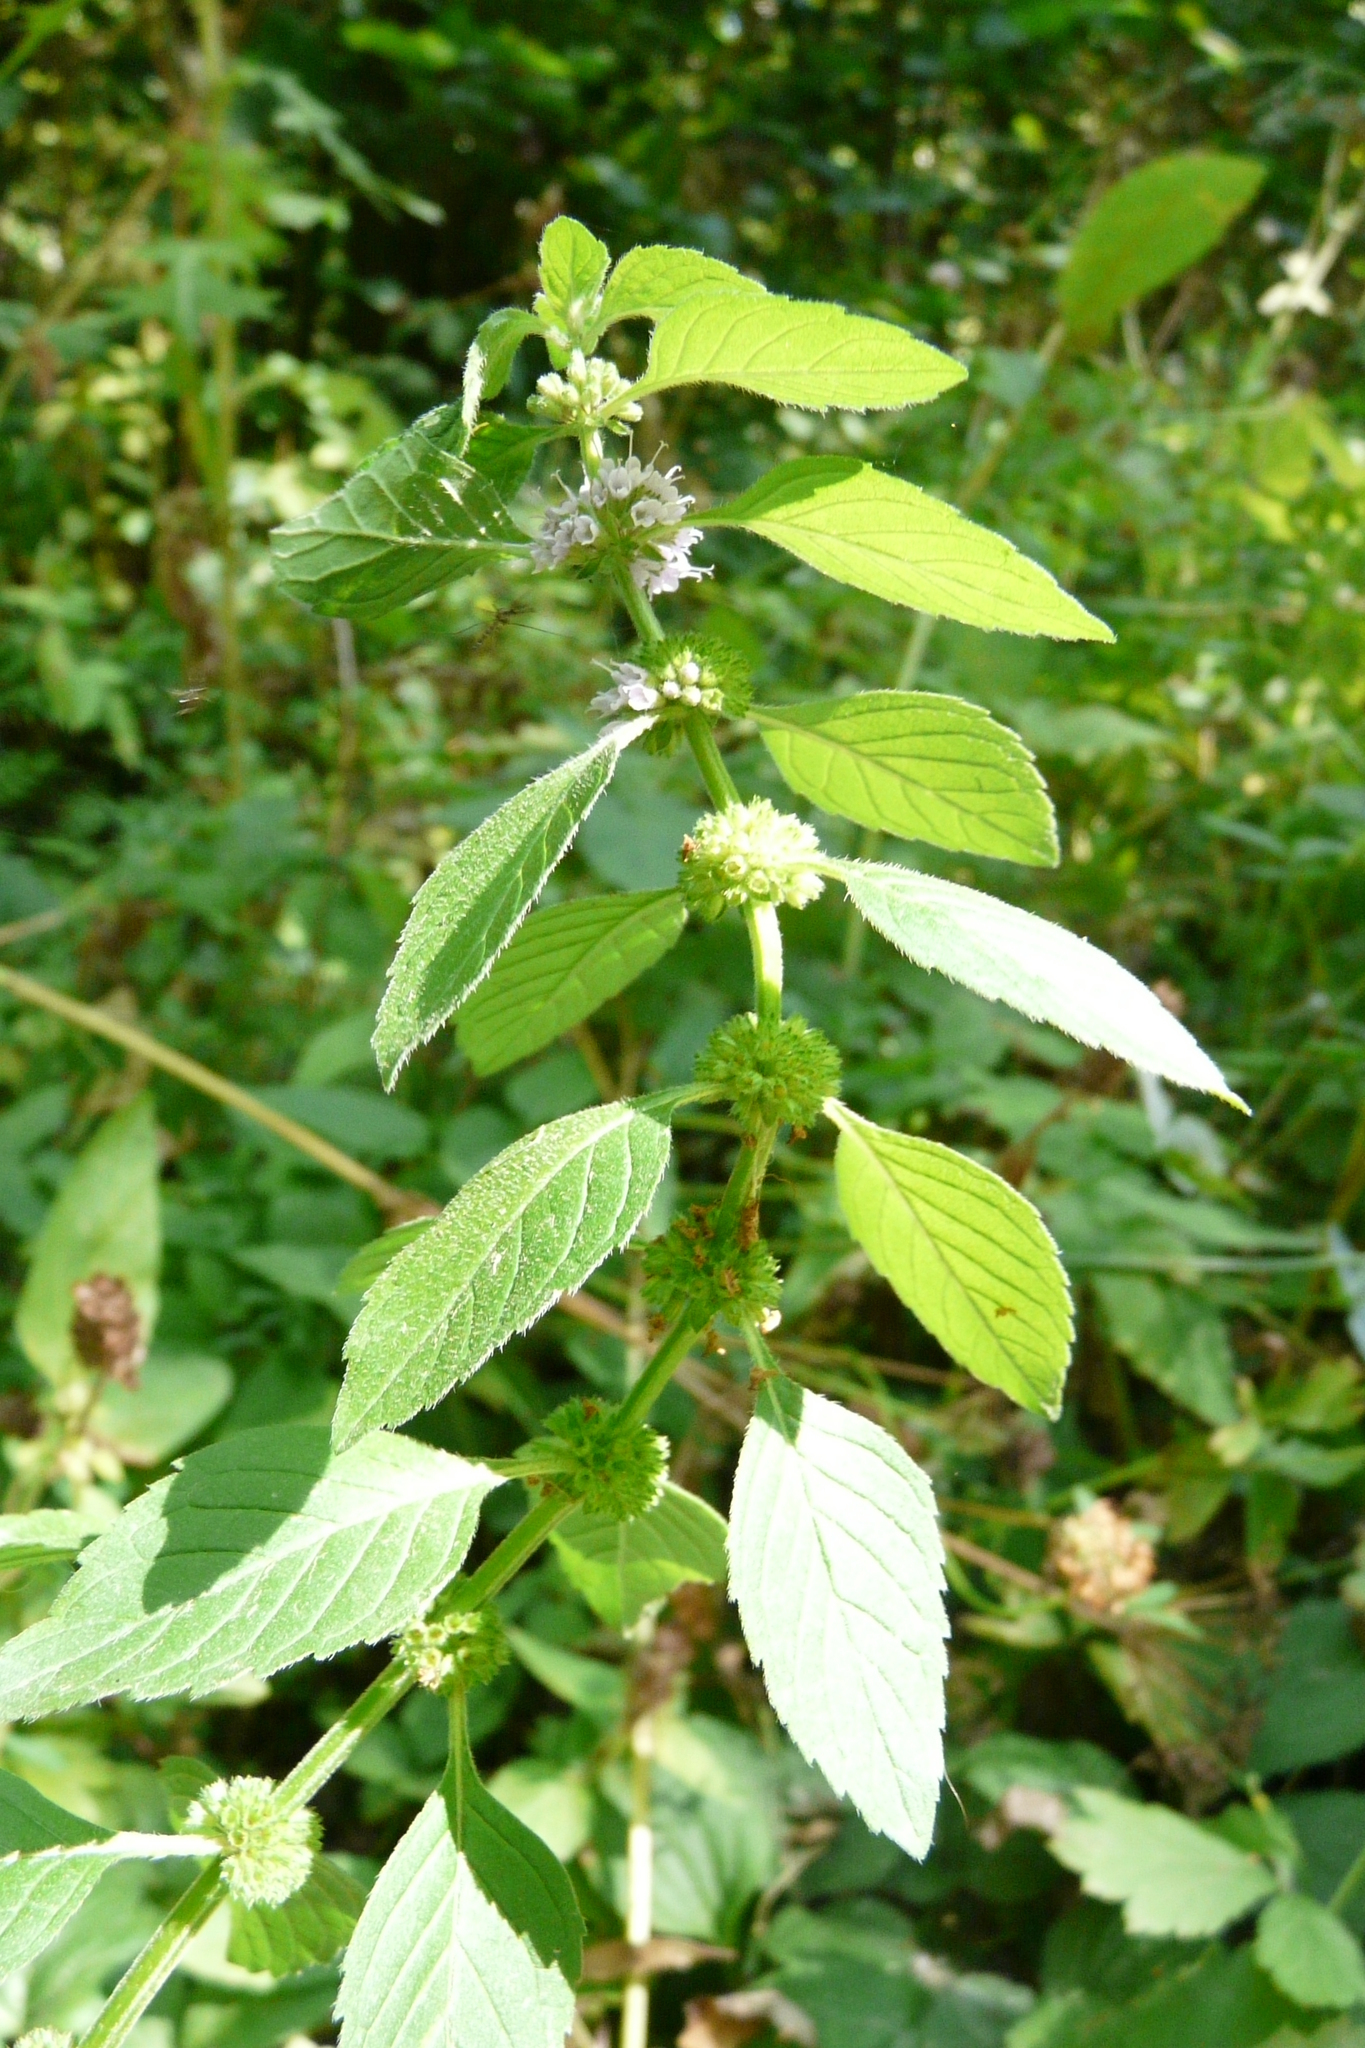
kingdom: Plantae
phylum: Tracheophyta
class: Magnoliopsida
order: Lamiales
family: Lamiaceae
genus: Mentha
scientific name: Mentha arvensis
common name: Corn mint
